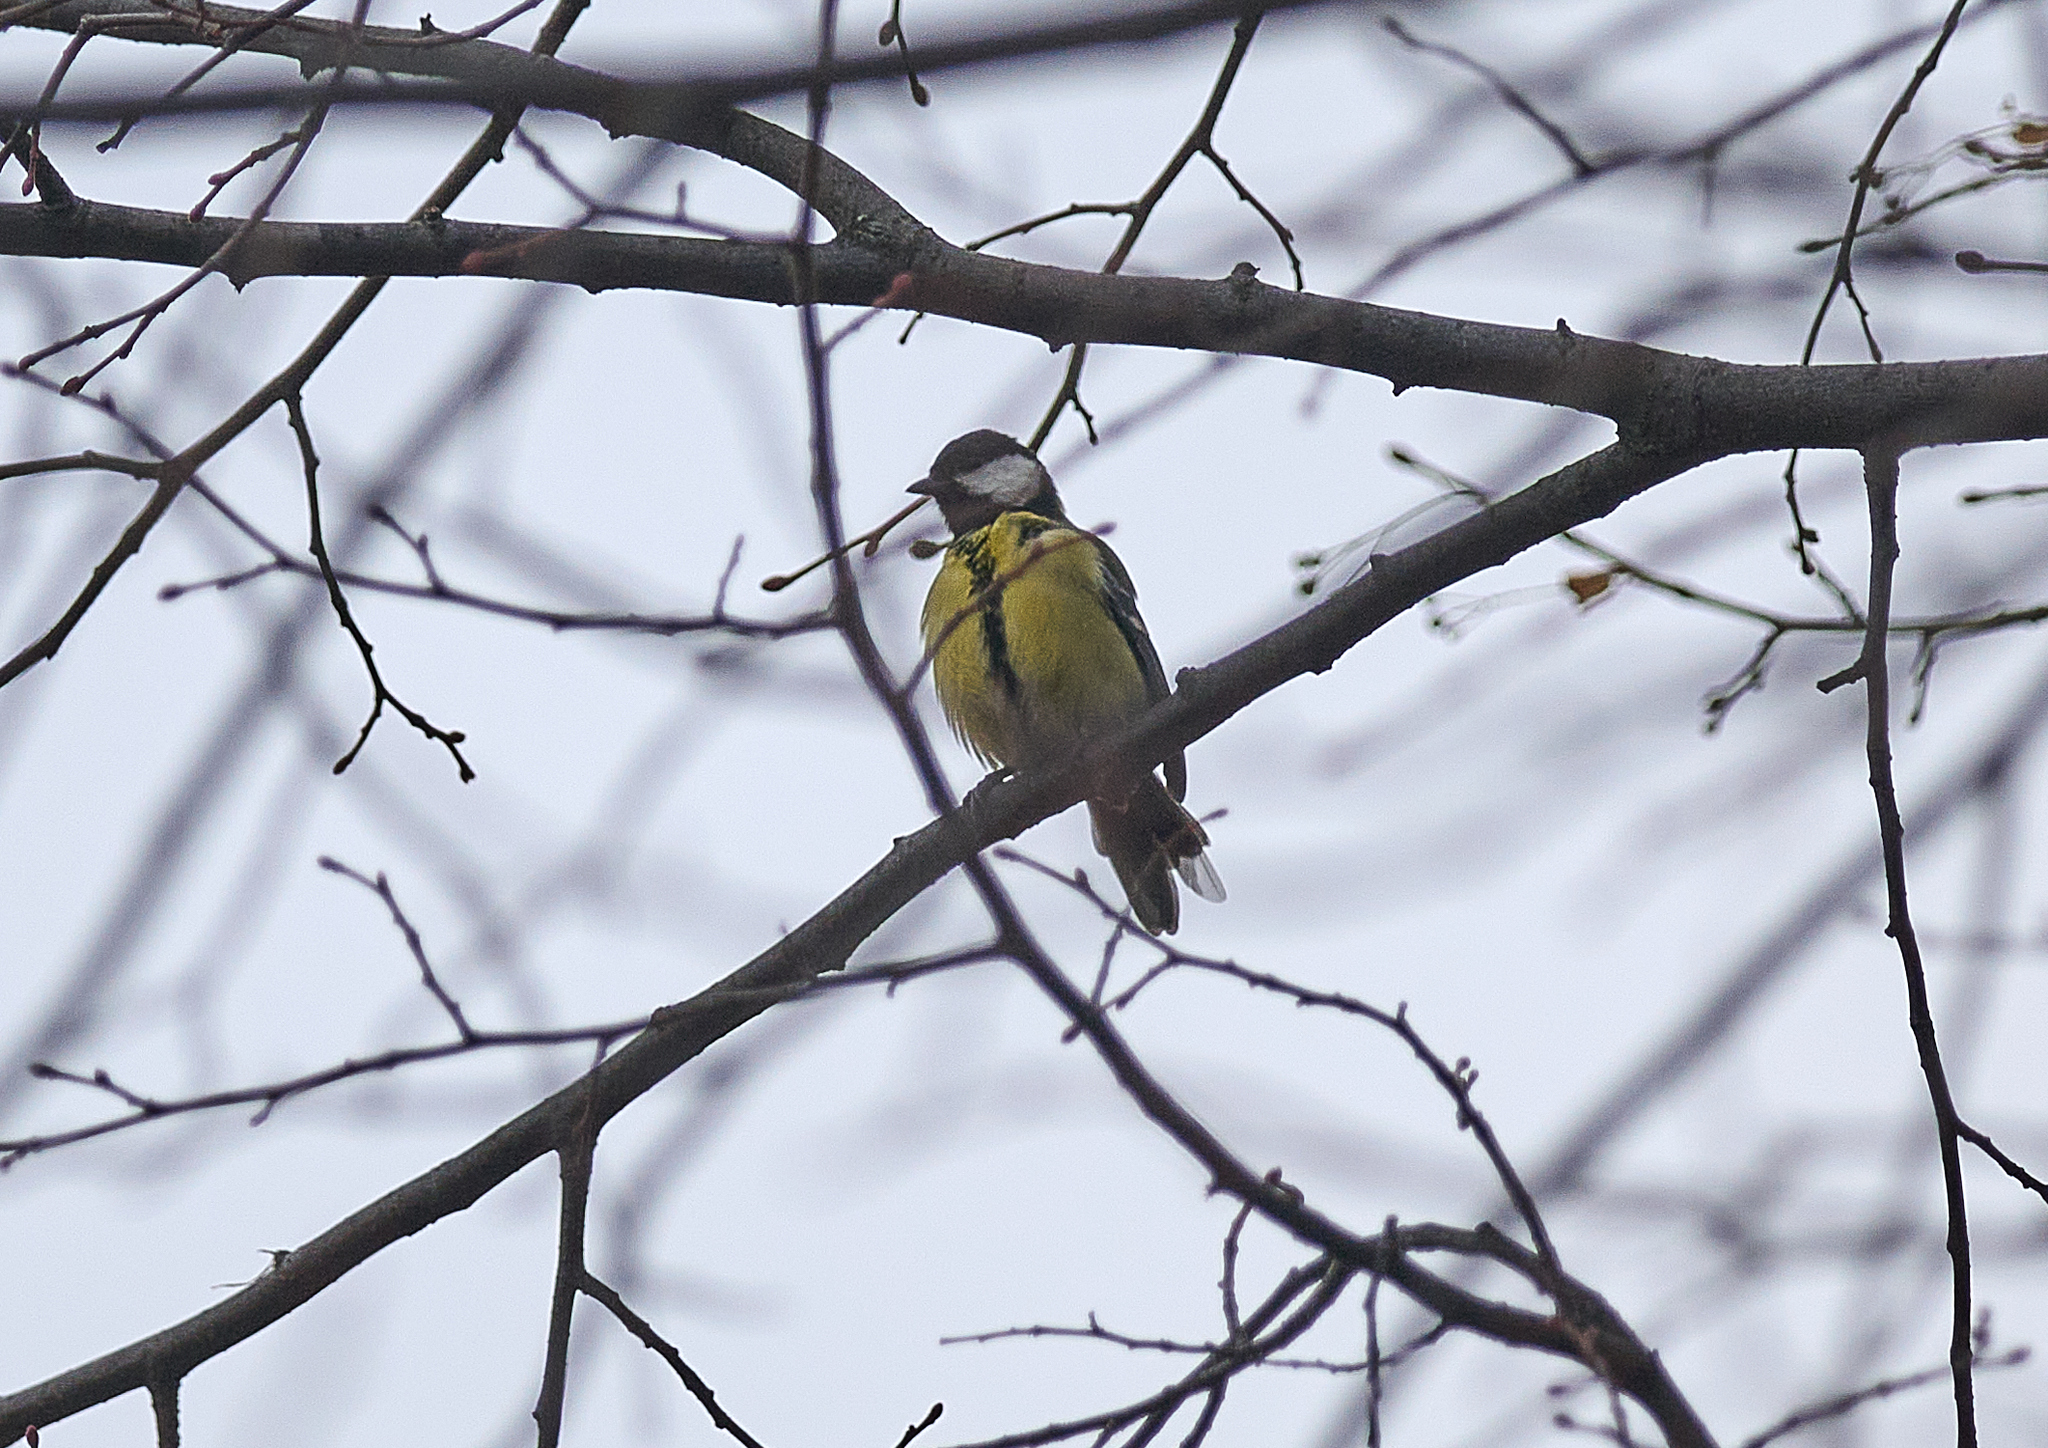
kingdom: Animalia
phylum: Chordata
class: Aves
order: Passeriformes
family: Paridae
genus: Parus
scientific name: Parus major
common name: Great tit
